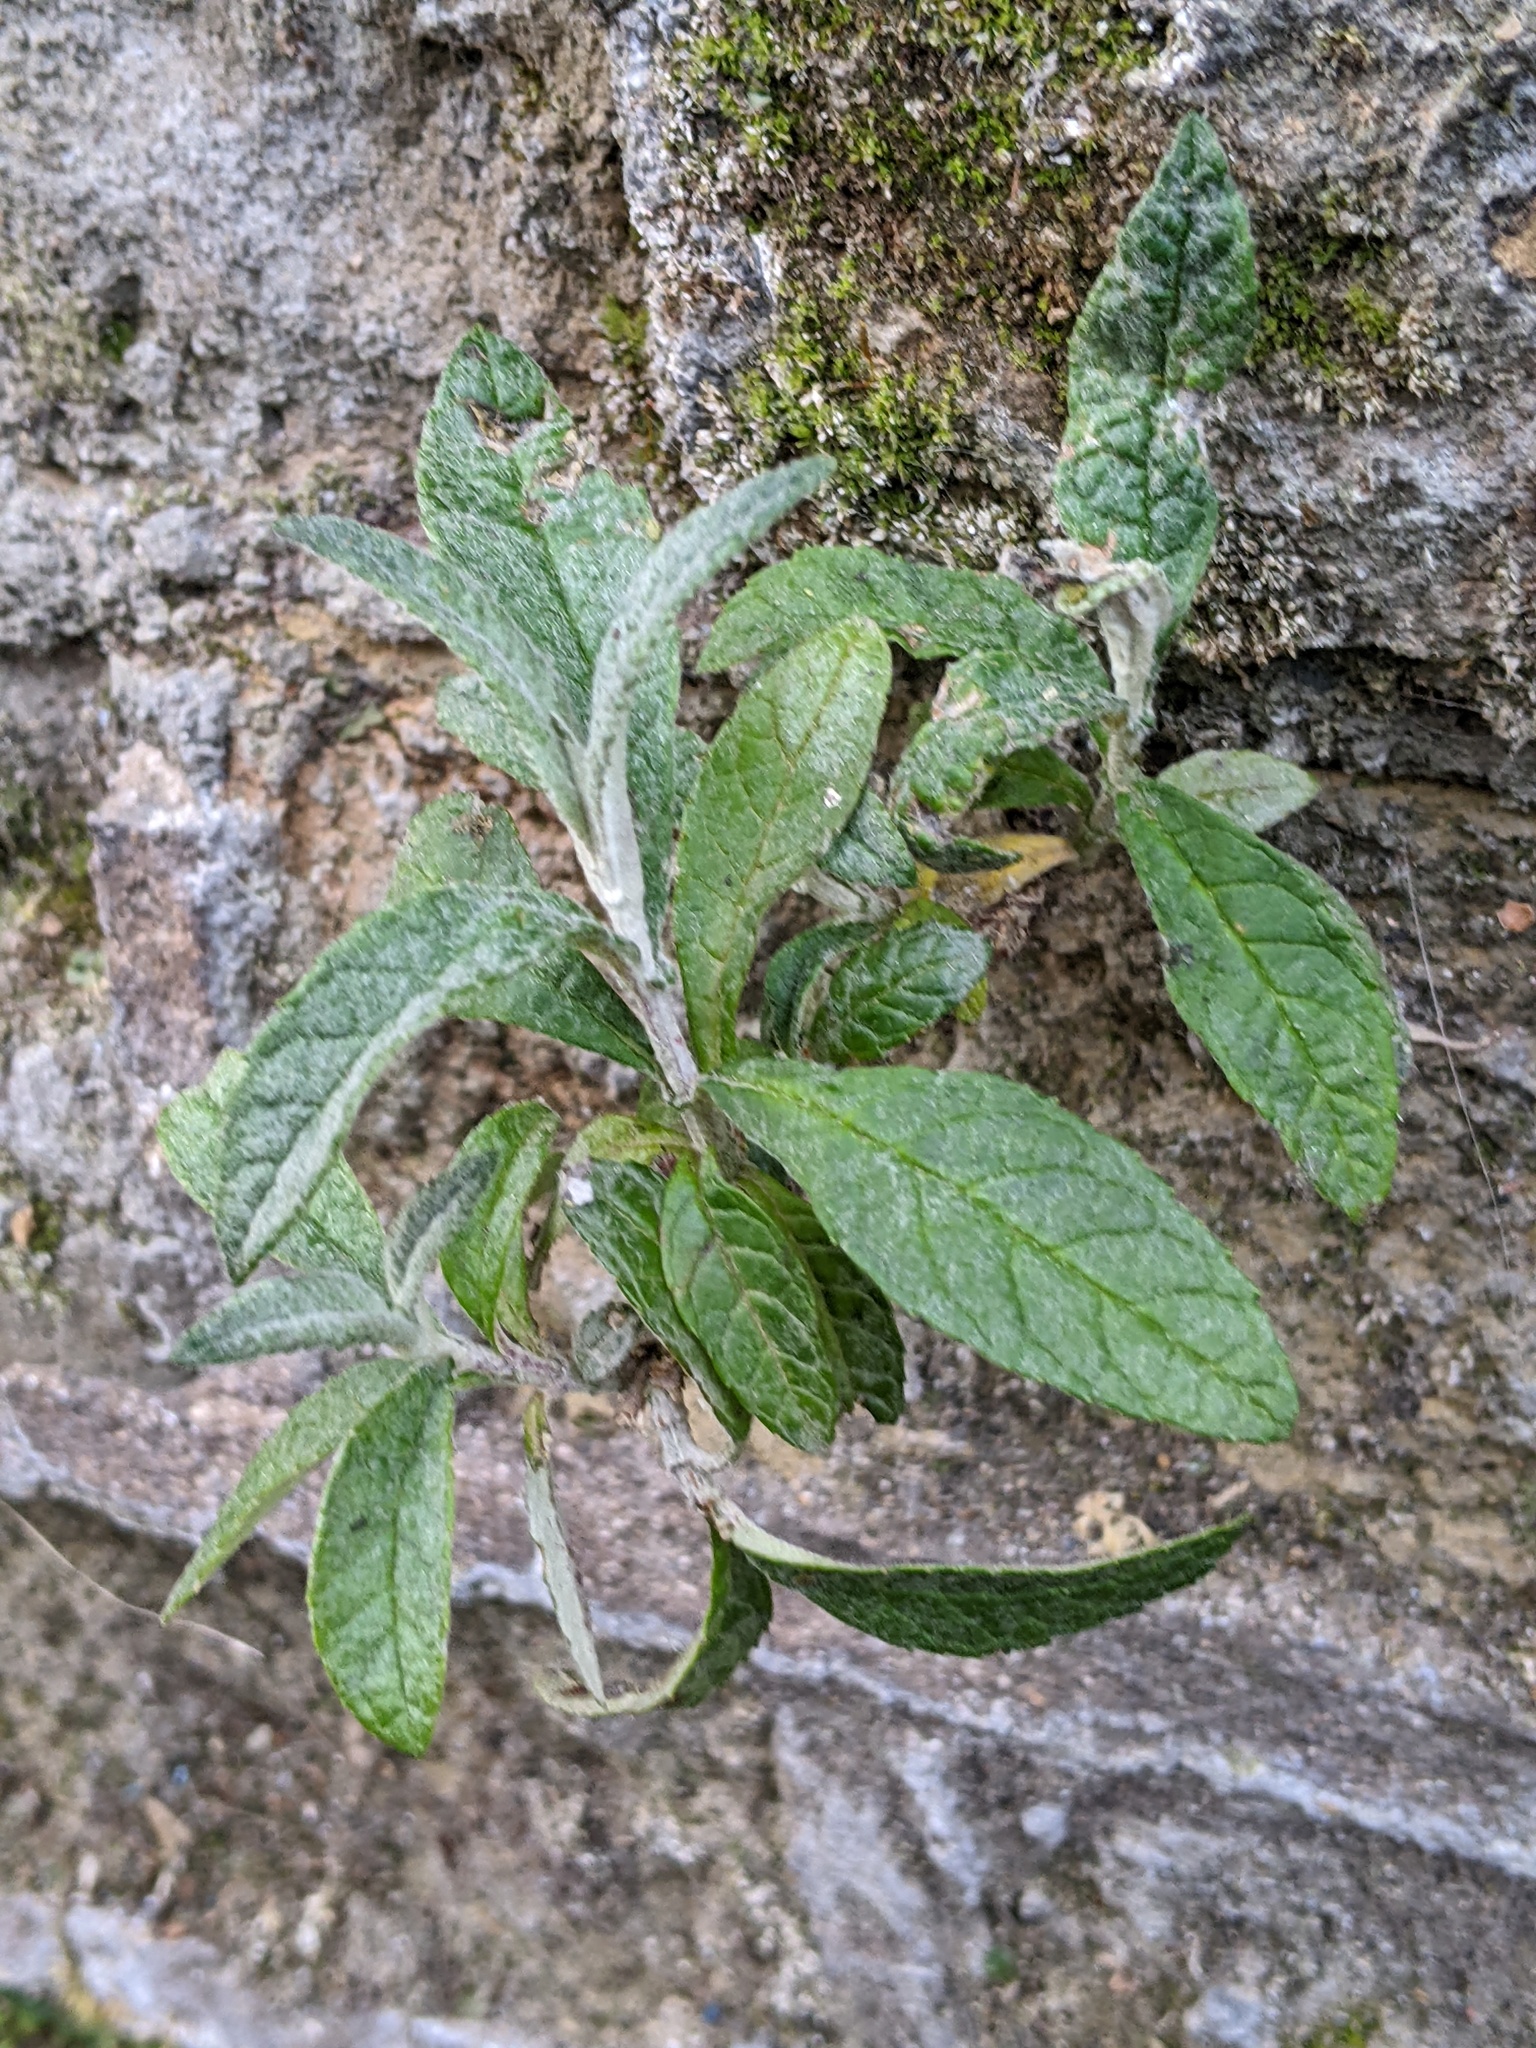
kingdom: Plantae
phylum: Tracheophyta
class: Magnoliopsida
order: Lamiales
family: Scrophulariaceae
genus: Buddleja
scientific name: Buddleja davidii
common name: Butterfly-bush
